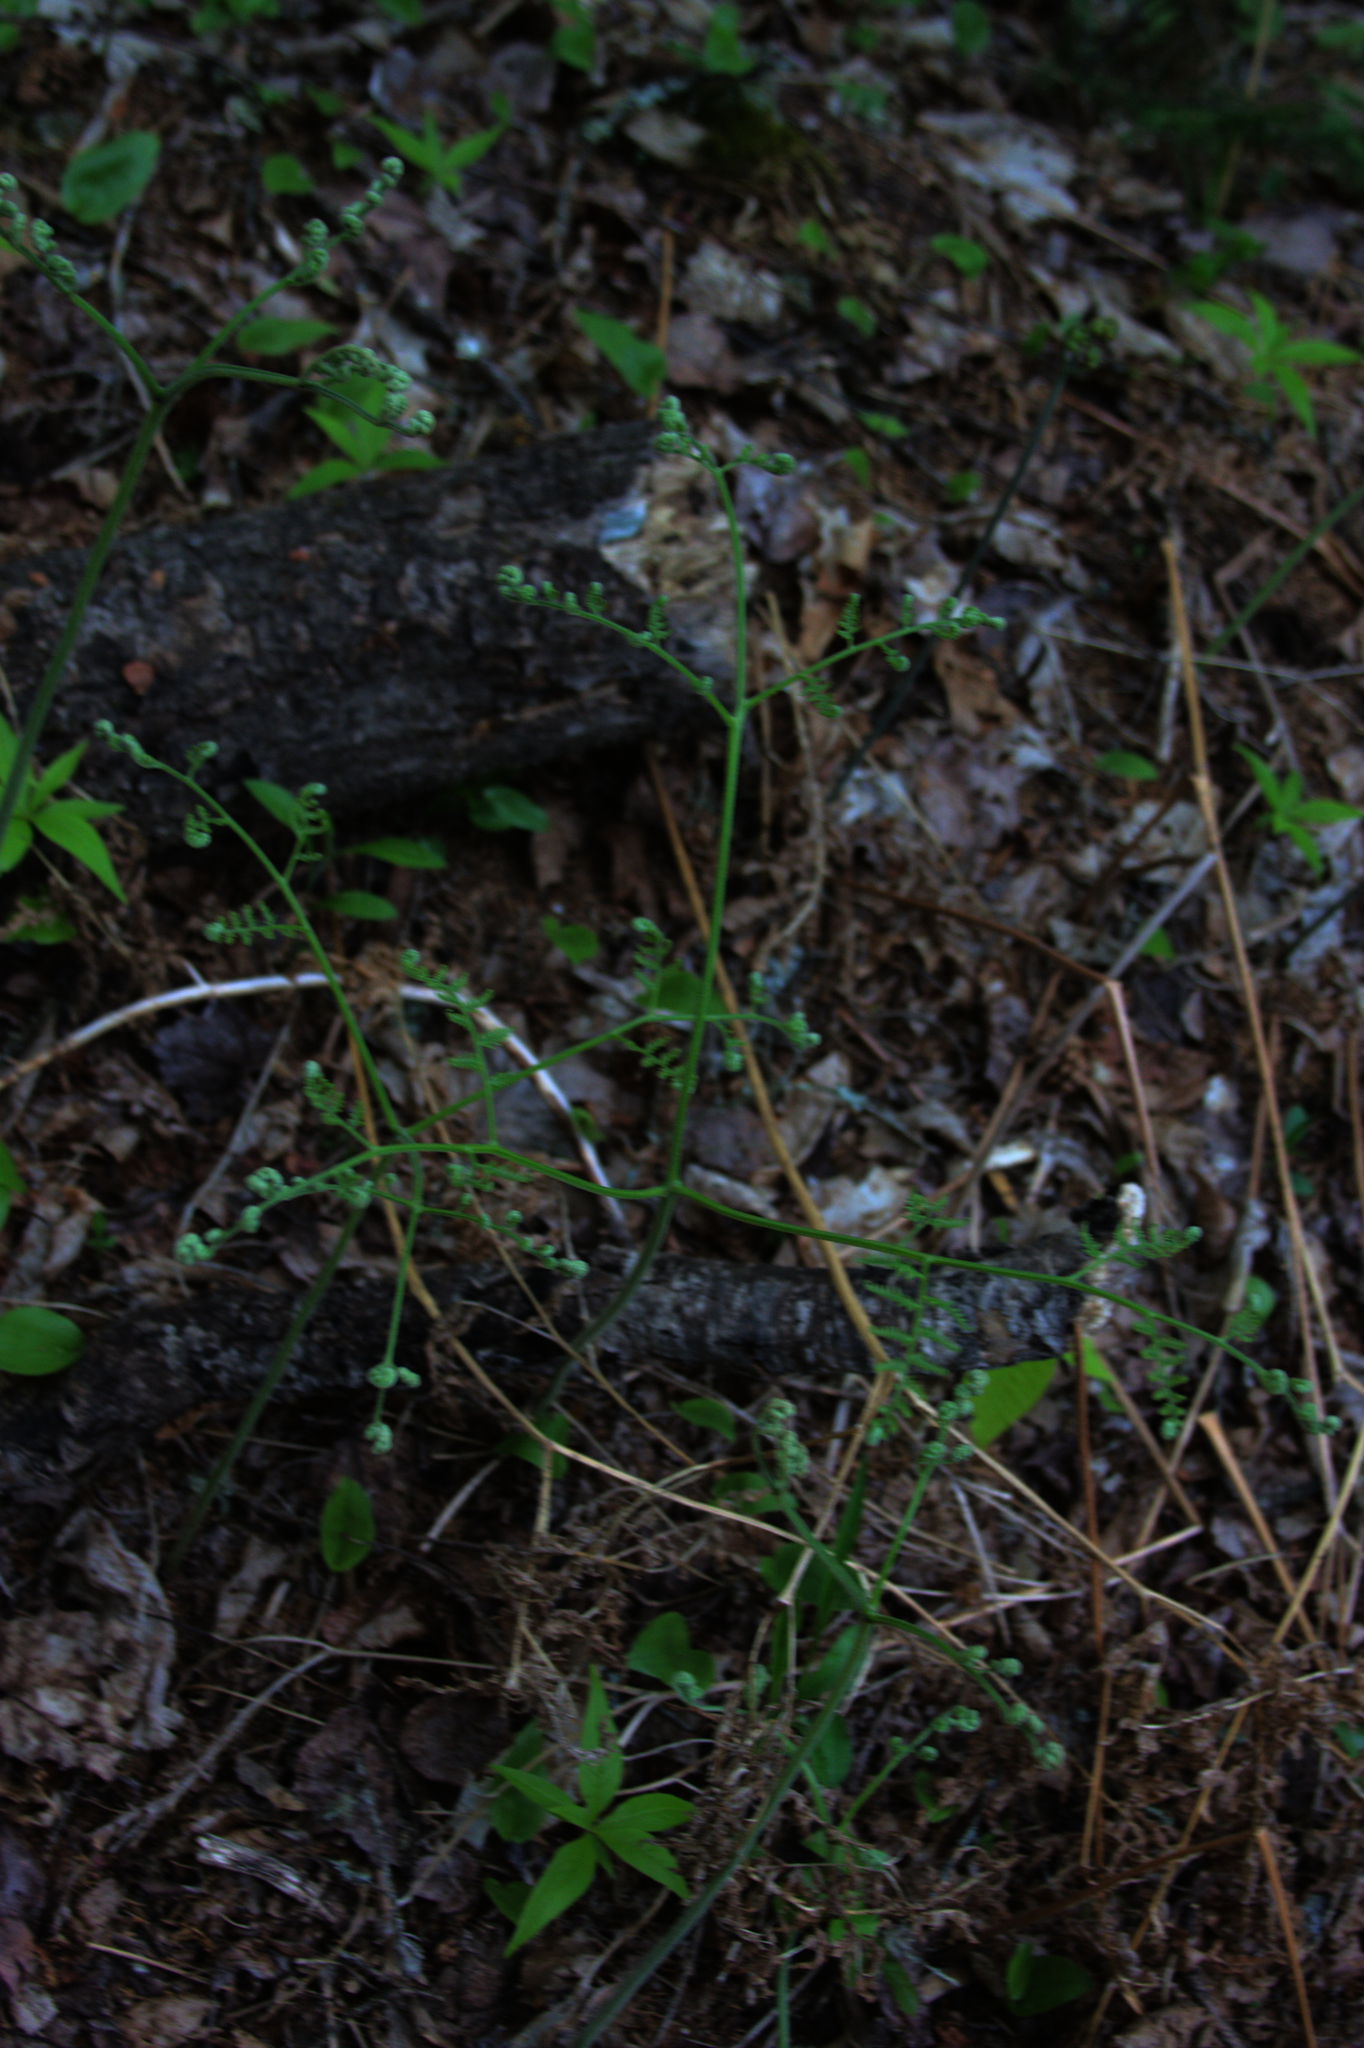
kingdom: Plantae
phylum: Tracheophyta
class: Polypodiopsida
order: Polypodiales
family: Dennstaedtiaceae
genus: Pteridium
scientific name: Pteridium aquilinum
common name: Bracken
